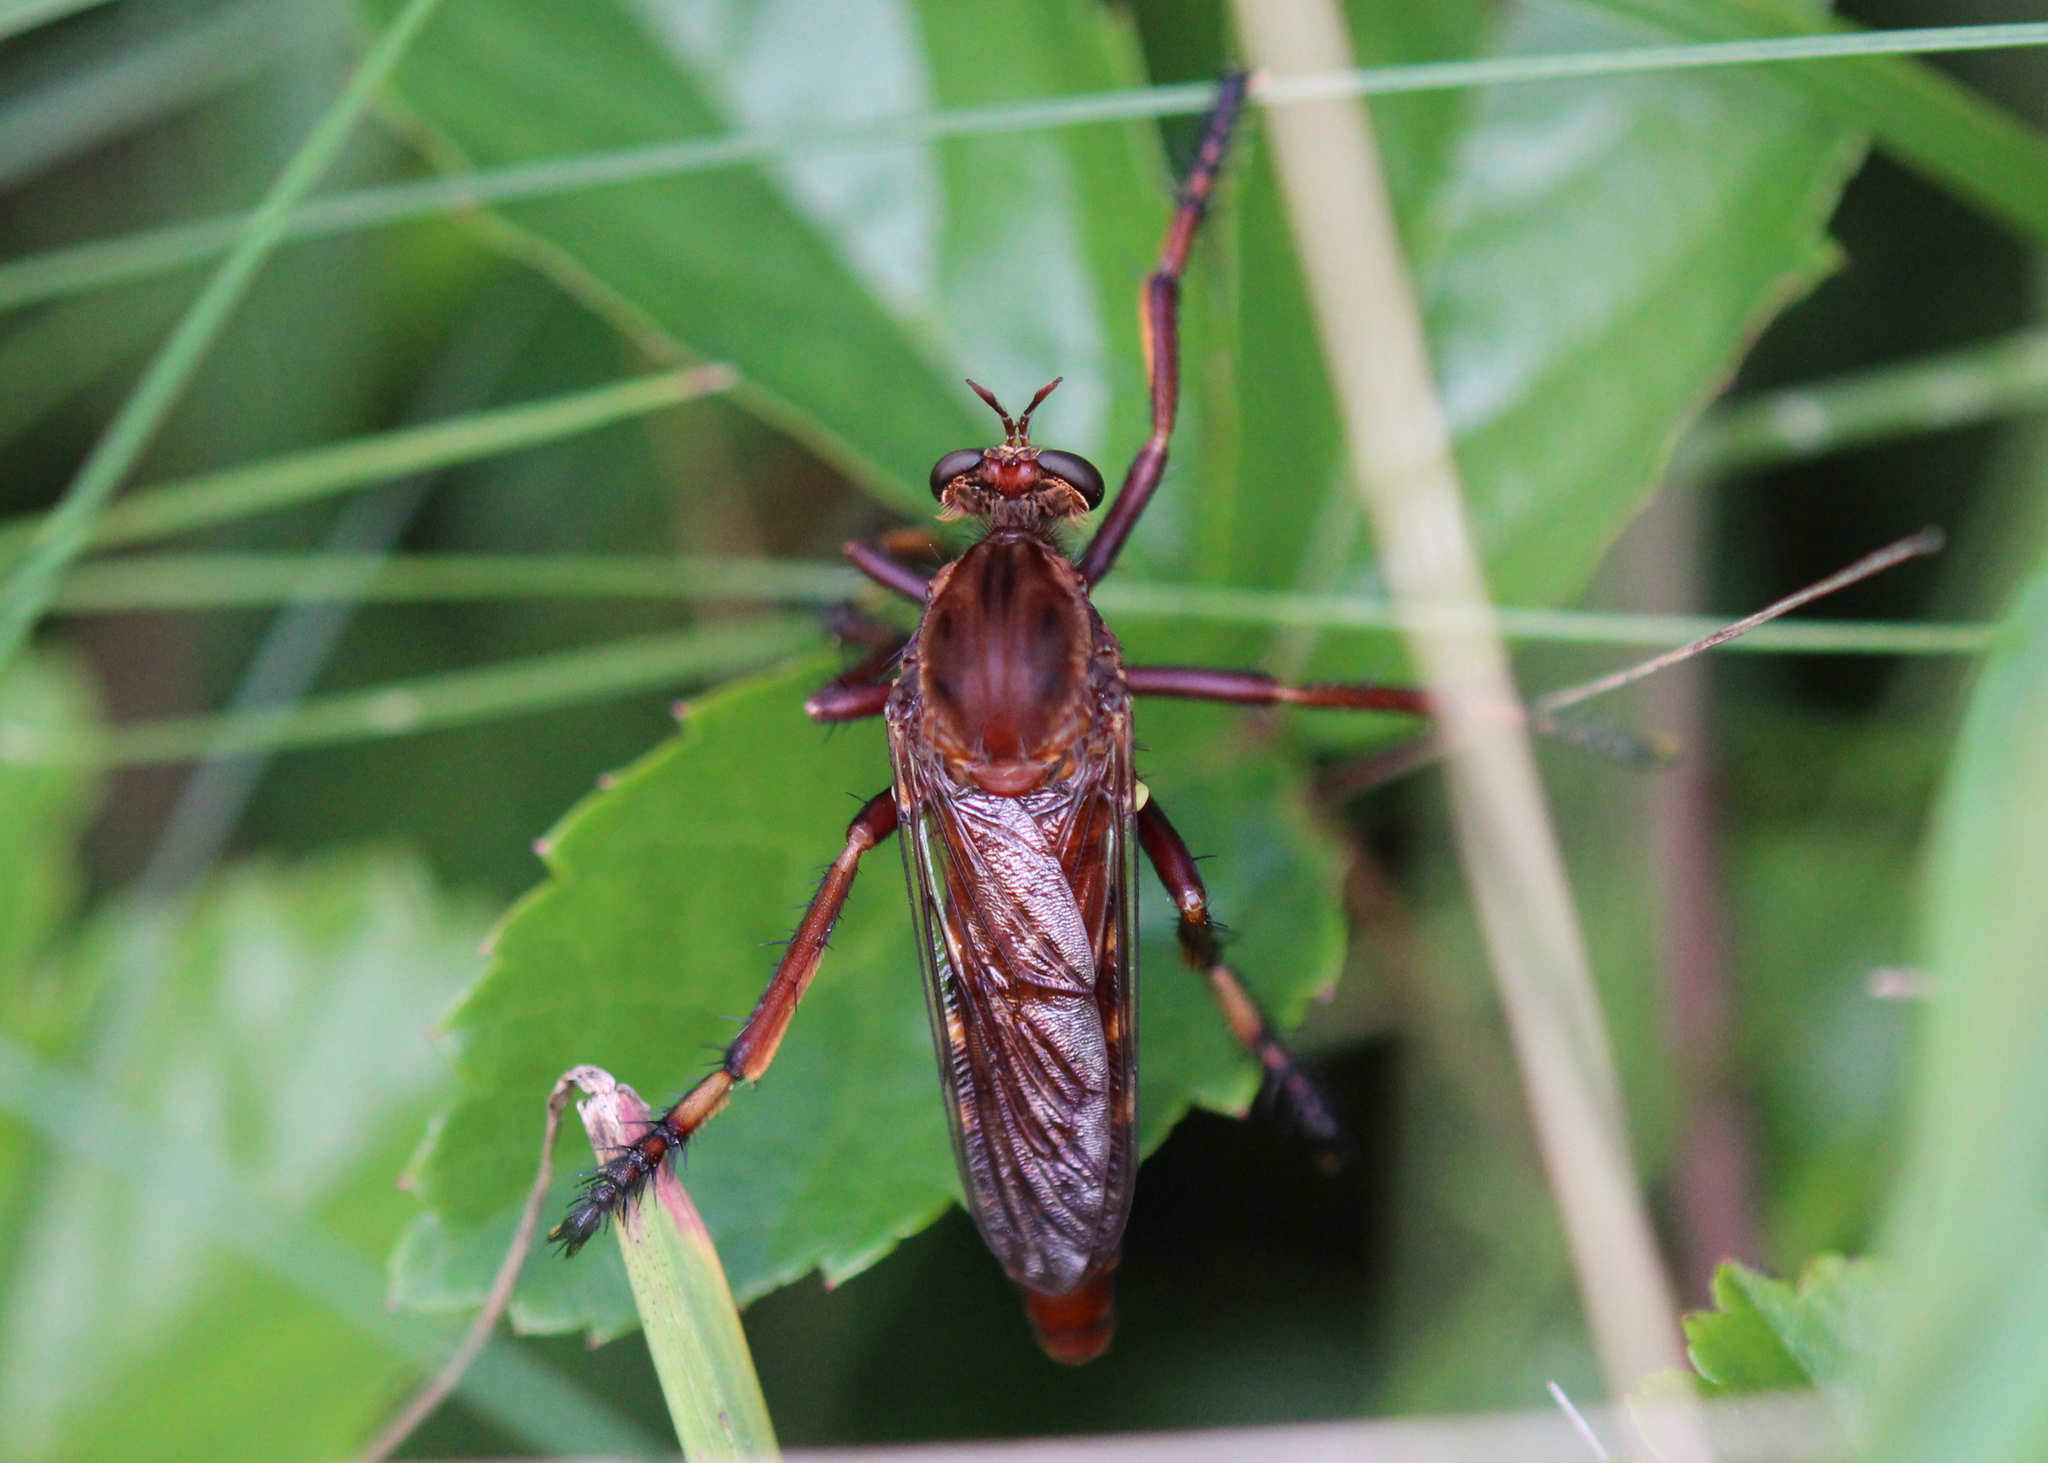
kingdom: Animalia
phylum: Arthropoda
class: Insecta
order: Diptera
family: Asilidae
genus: Diogmites
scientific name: Diogmites basalis
